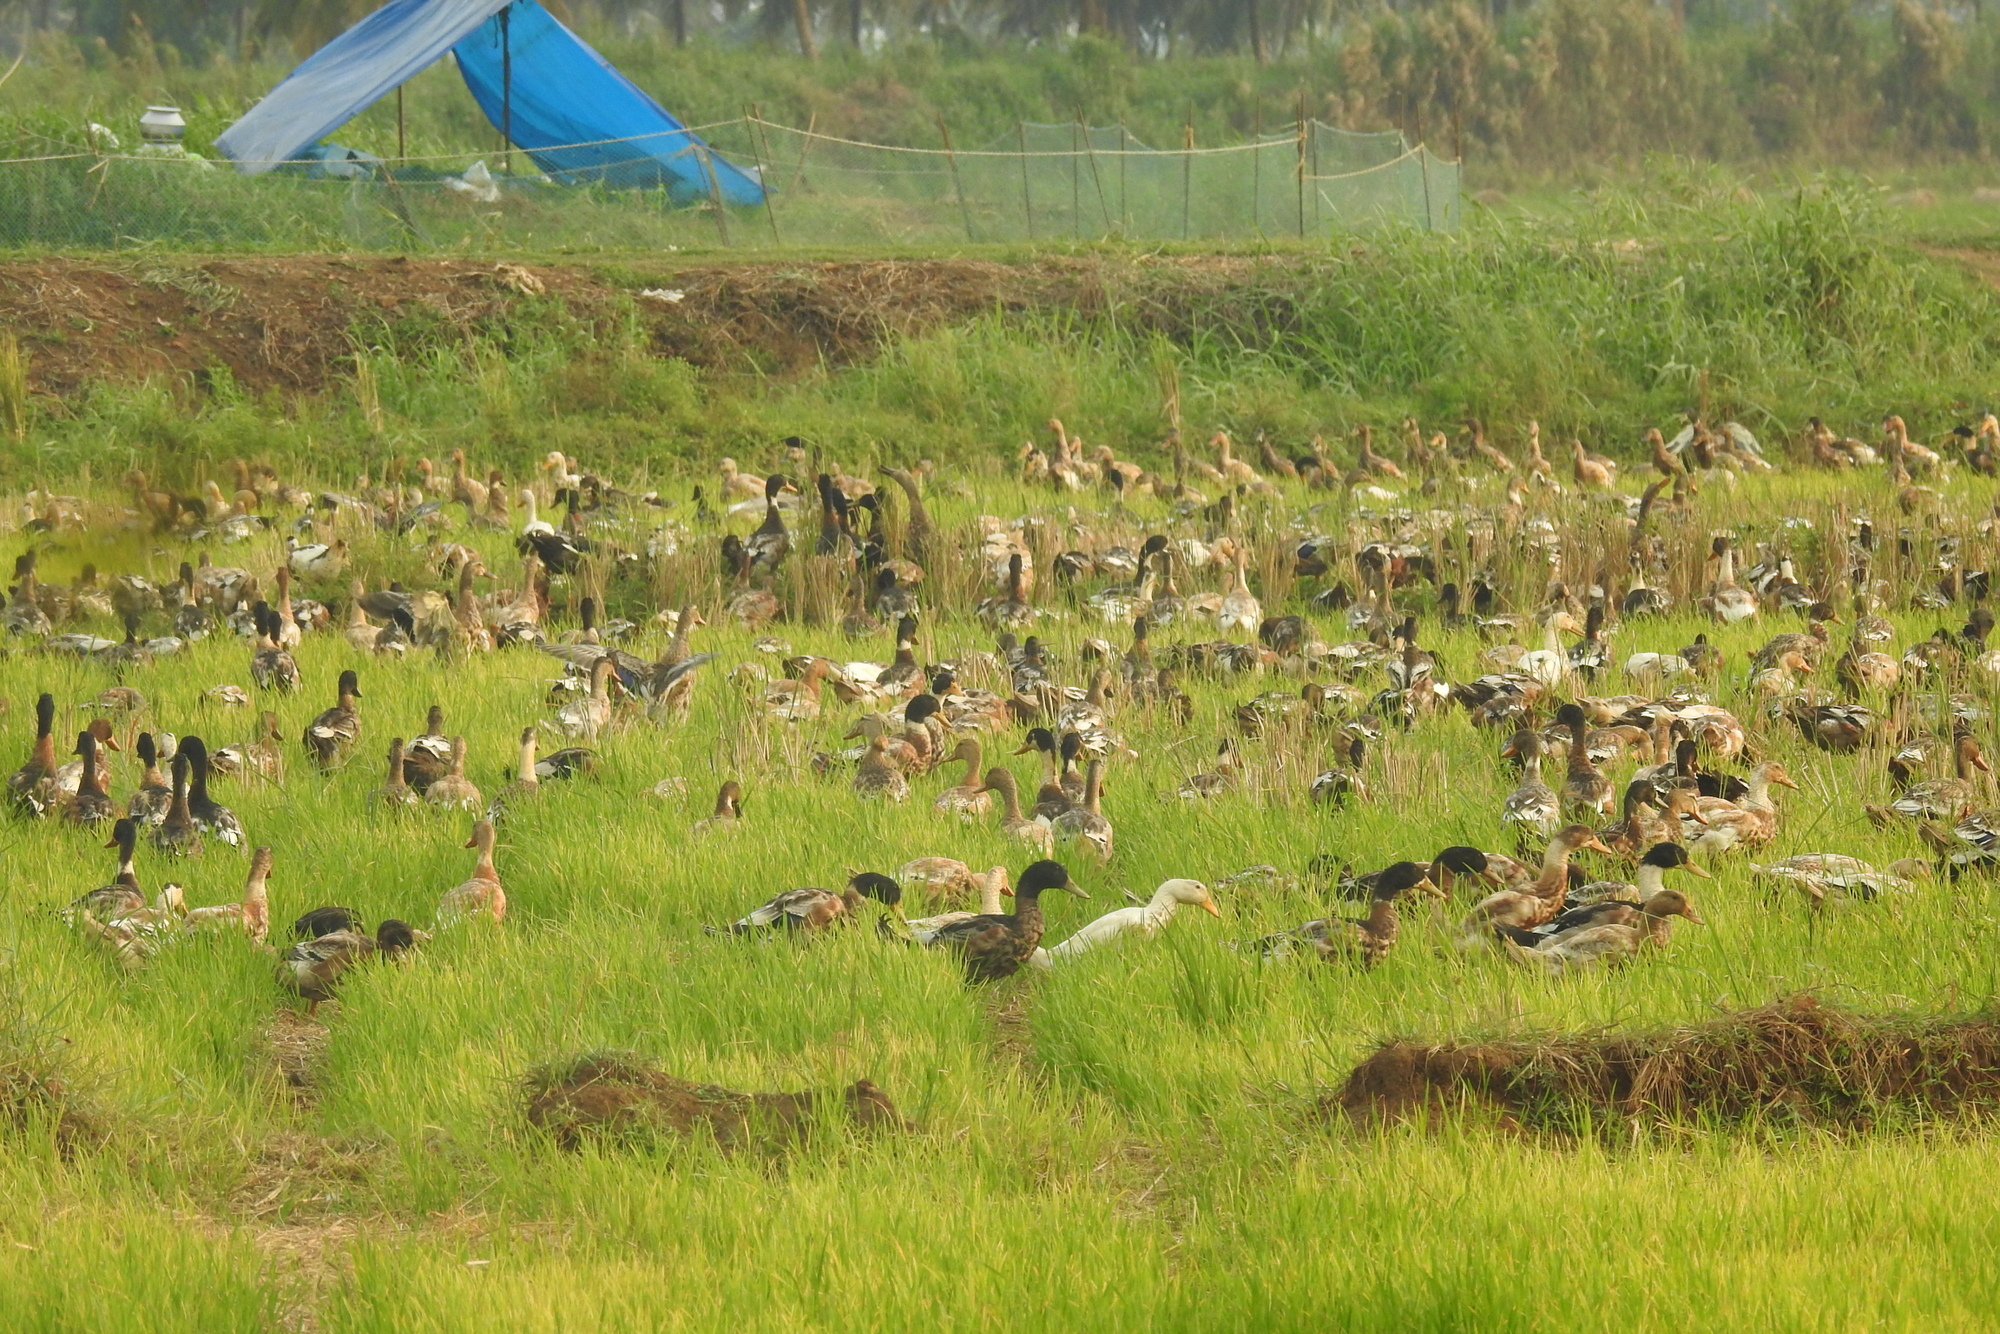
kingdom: Animalia
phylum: Chordata
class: Aves
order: Anseriformes
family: Anatidae
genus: Anas
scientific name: Anas platyrhynchos
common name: Mallard
